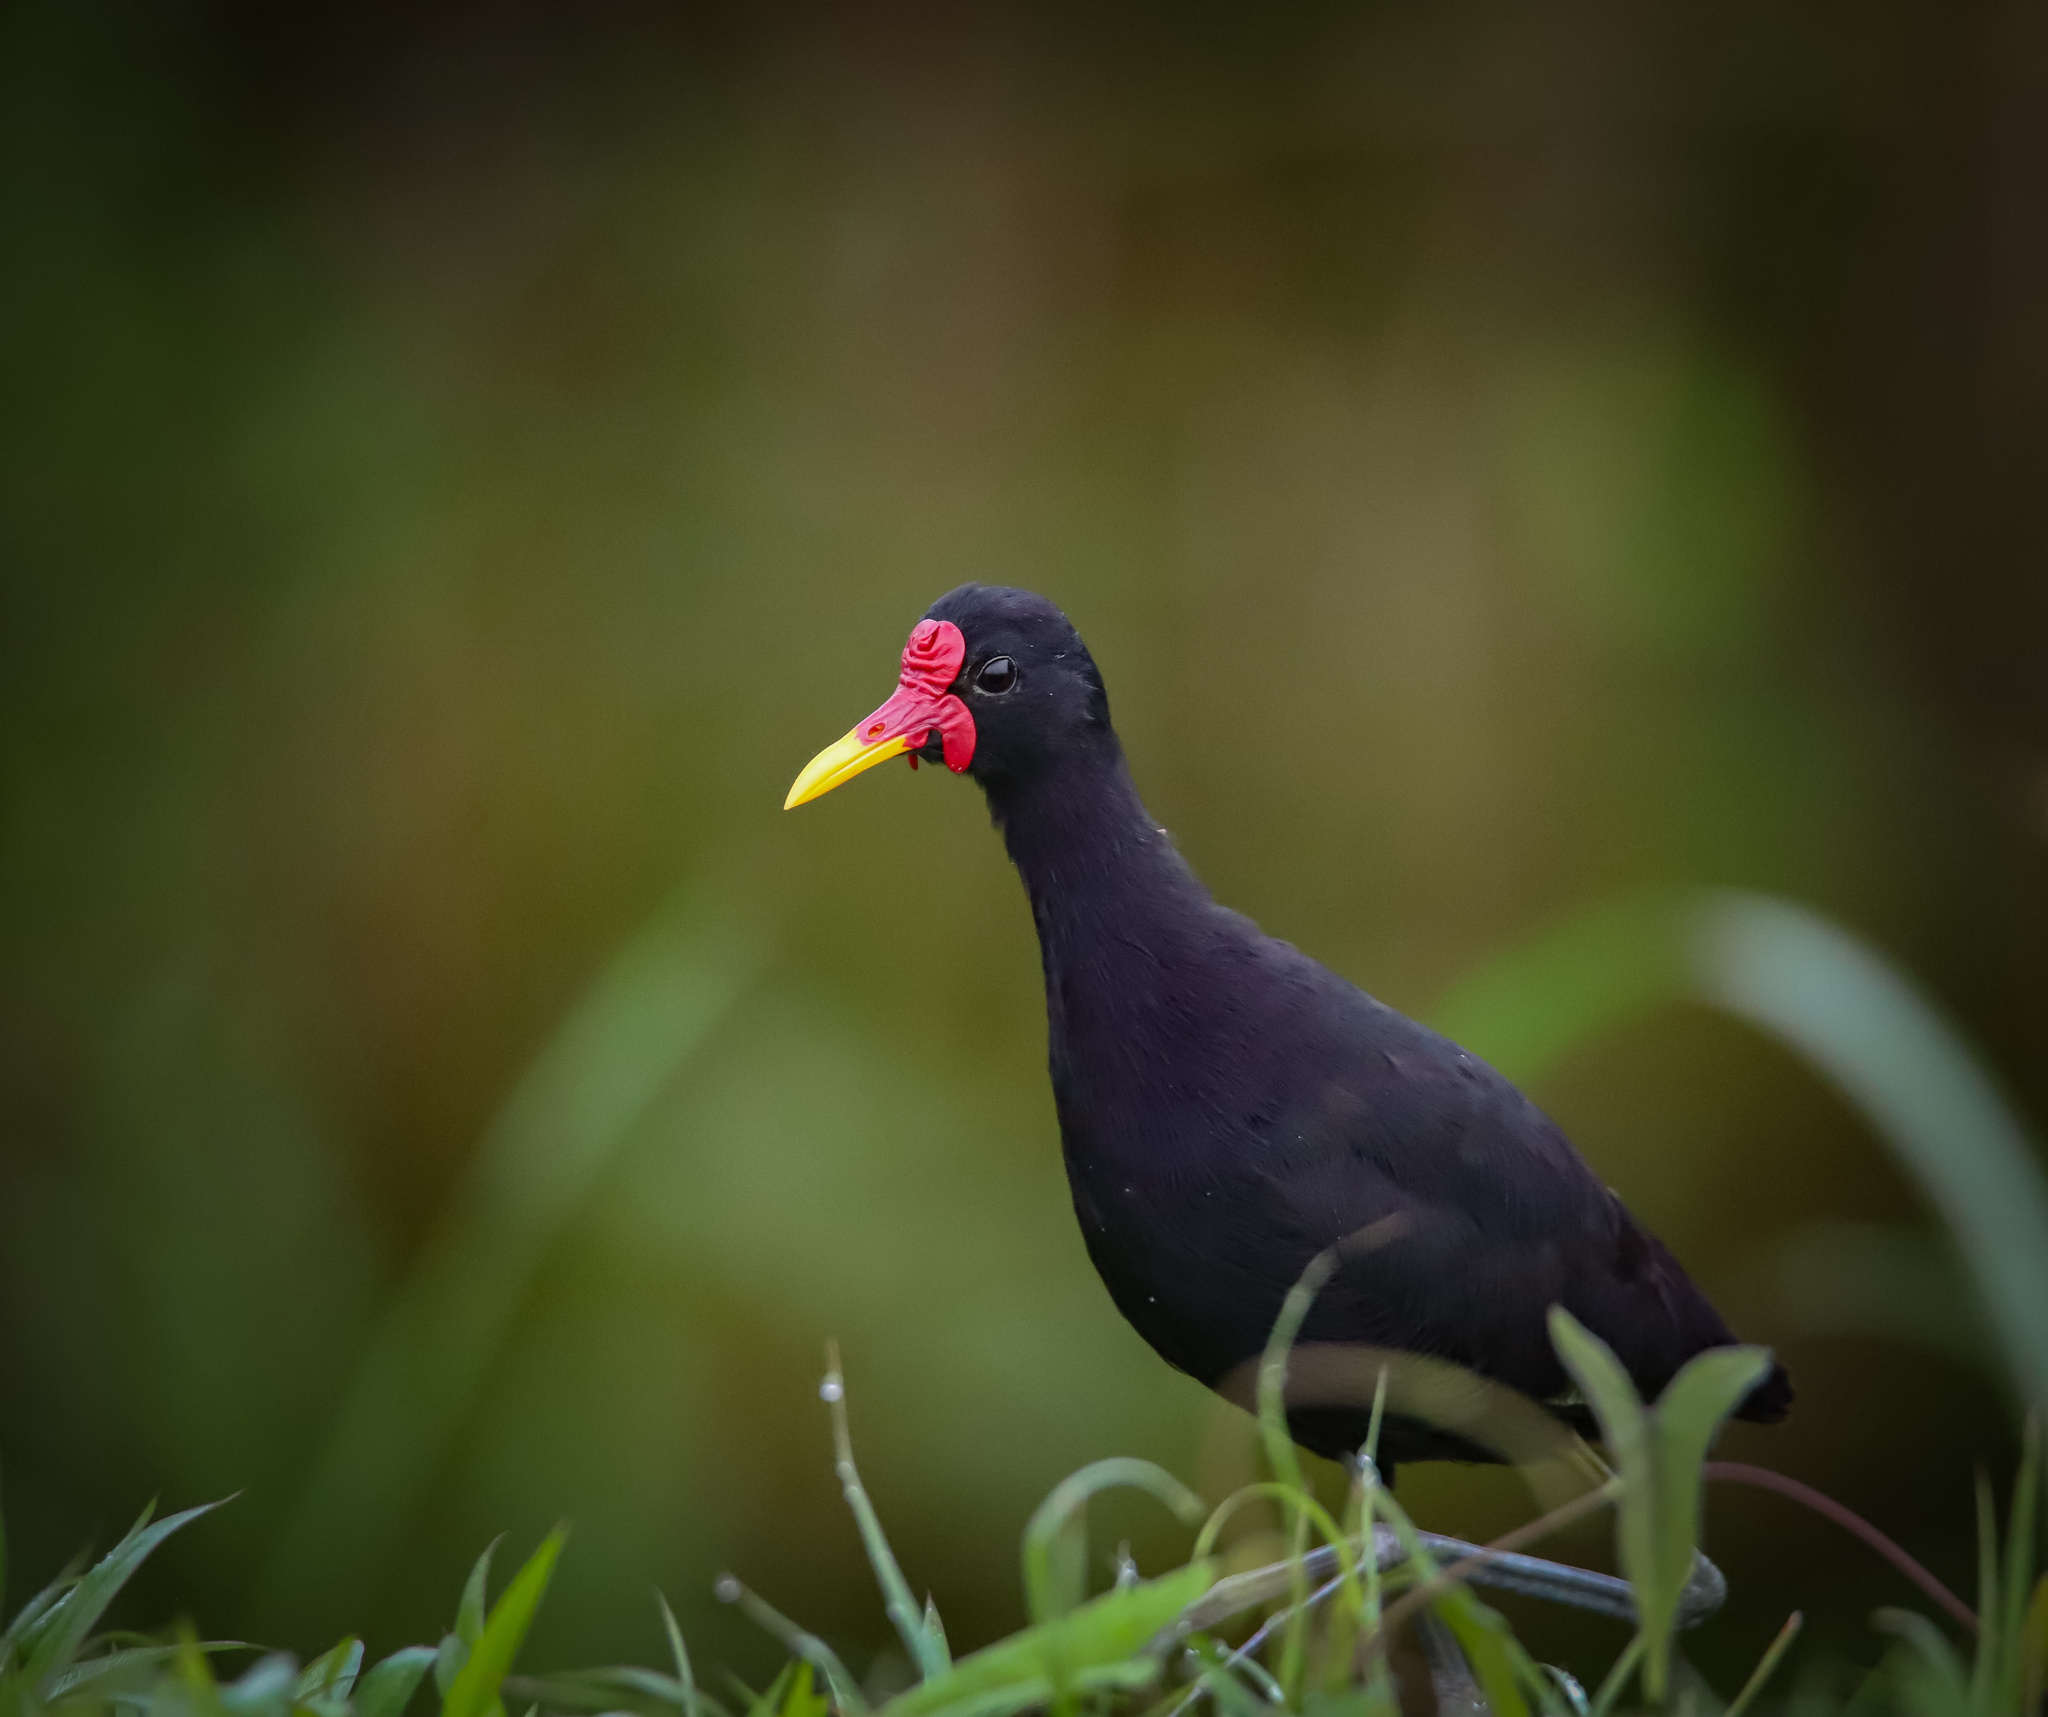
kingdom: Animalia
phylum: Chordata
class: Aves
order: Charadriiformes
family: Jacanidae
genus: Jacana
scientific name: Jacana jacana
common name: Wattled jacana
